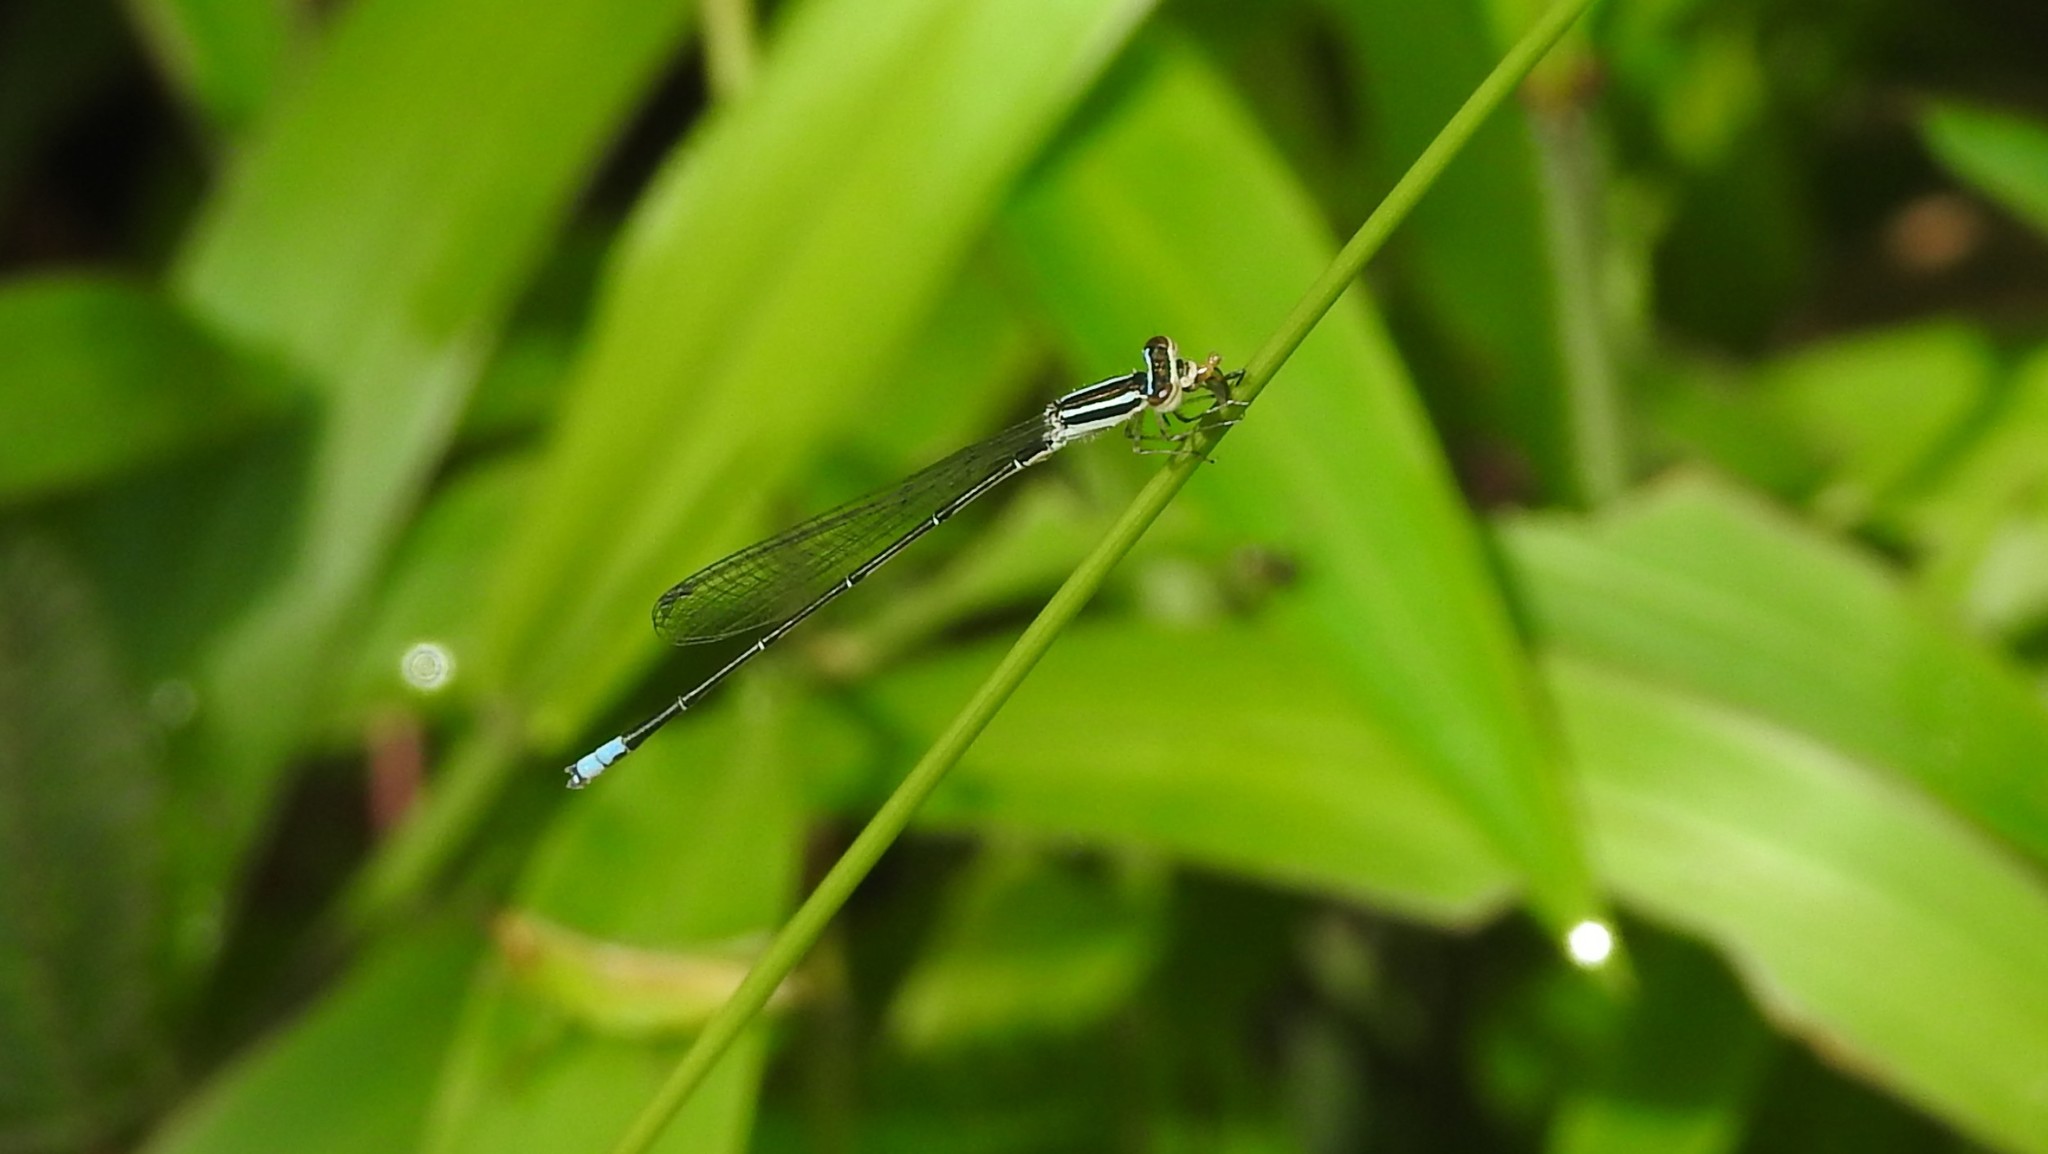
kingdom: Animalia
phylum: Arthropoda
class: Insecta
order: Odonata
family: Coenagrionidae
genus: Aciagrion
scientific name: Aciagrion occidentale
